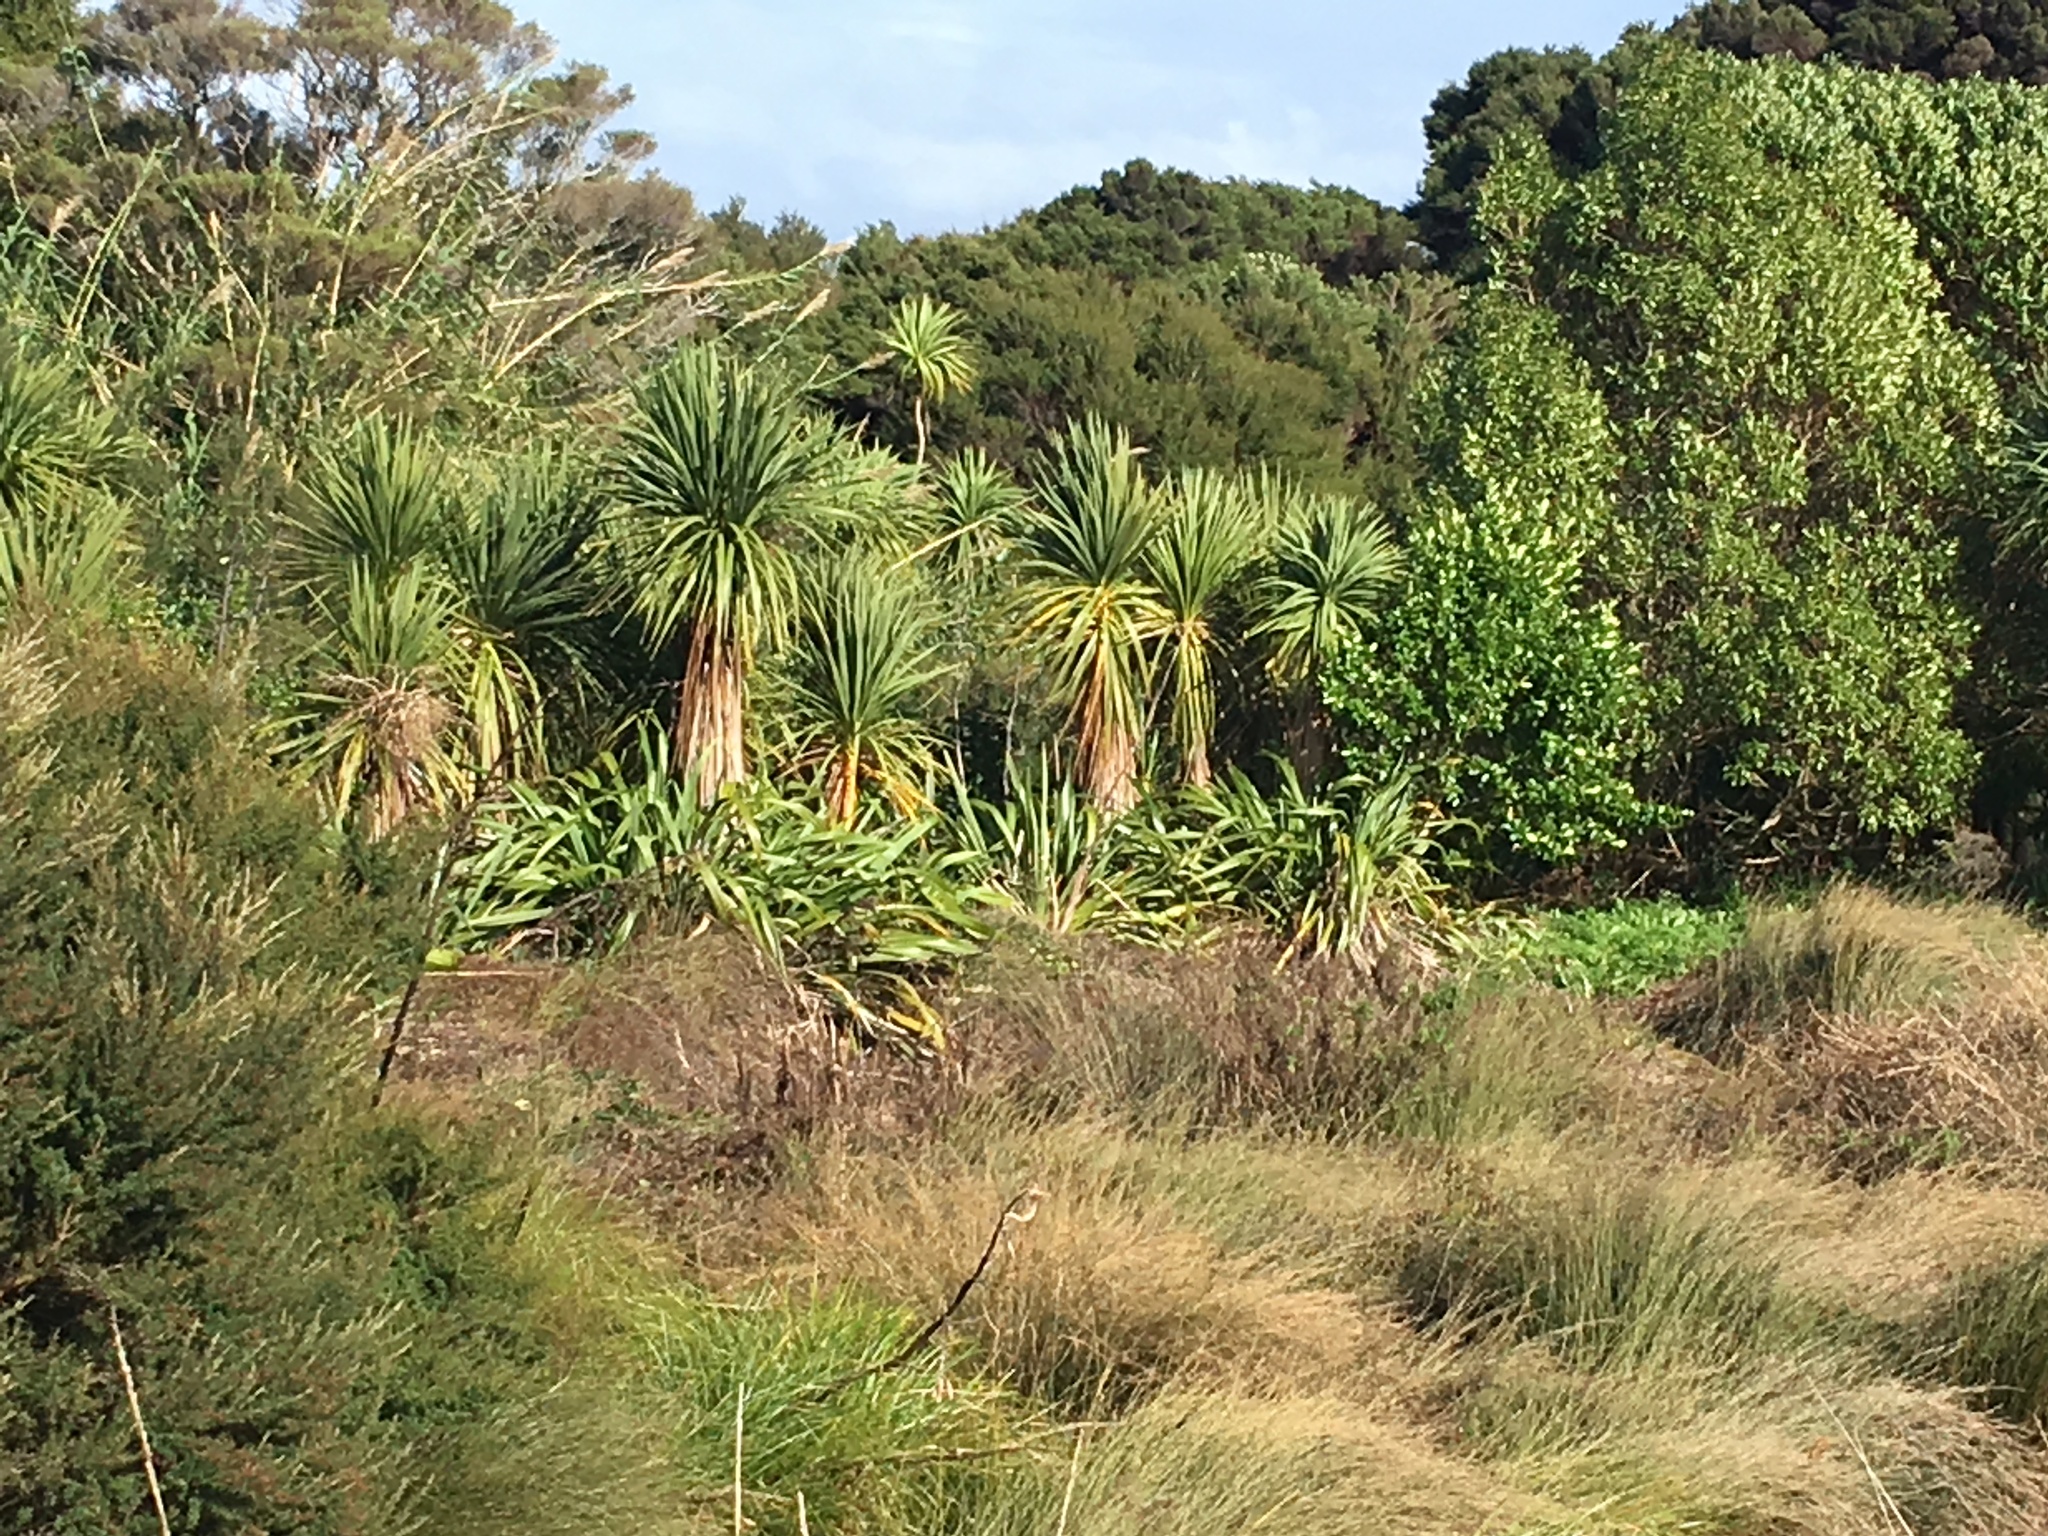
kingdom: Plantae
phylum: Tracheophyta
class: Liliopsida
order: Asparagales
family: Asparagaceae
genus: Cordyline
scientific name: Cordyline australis
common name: Cabbage-palm
